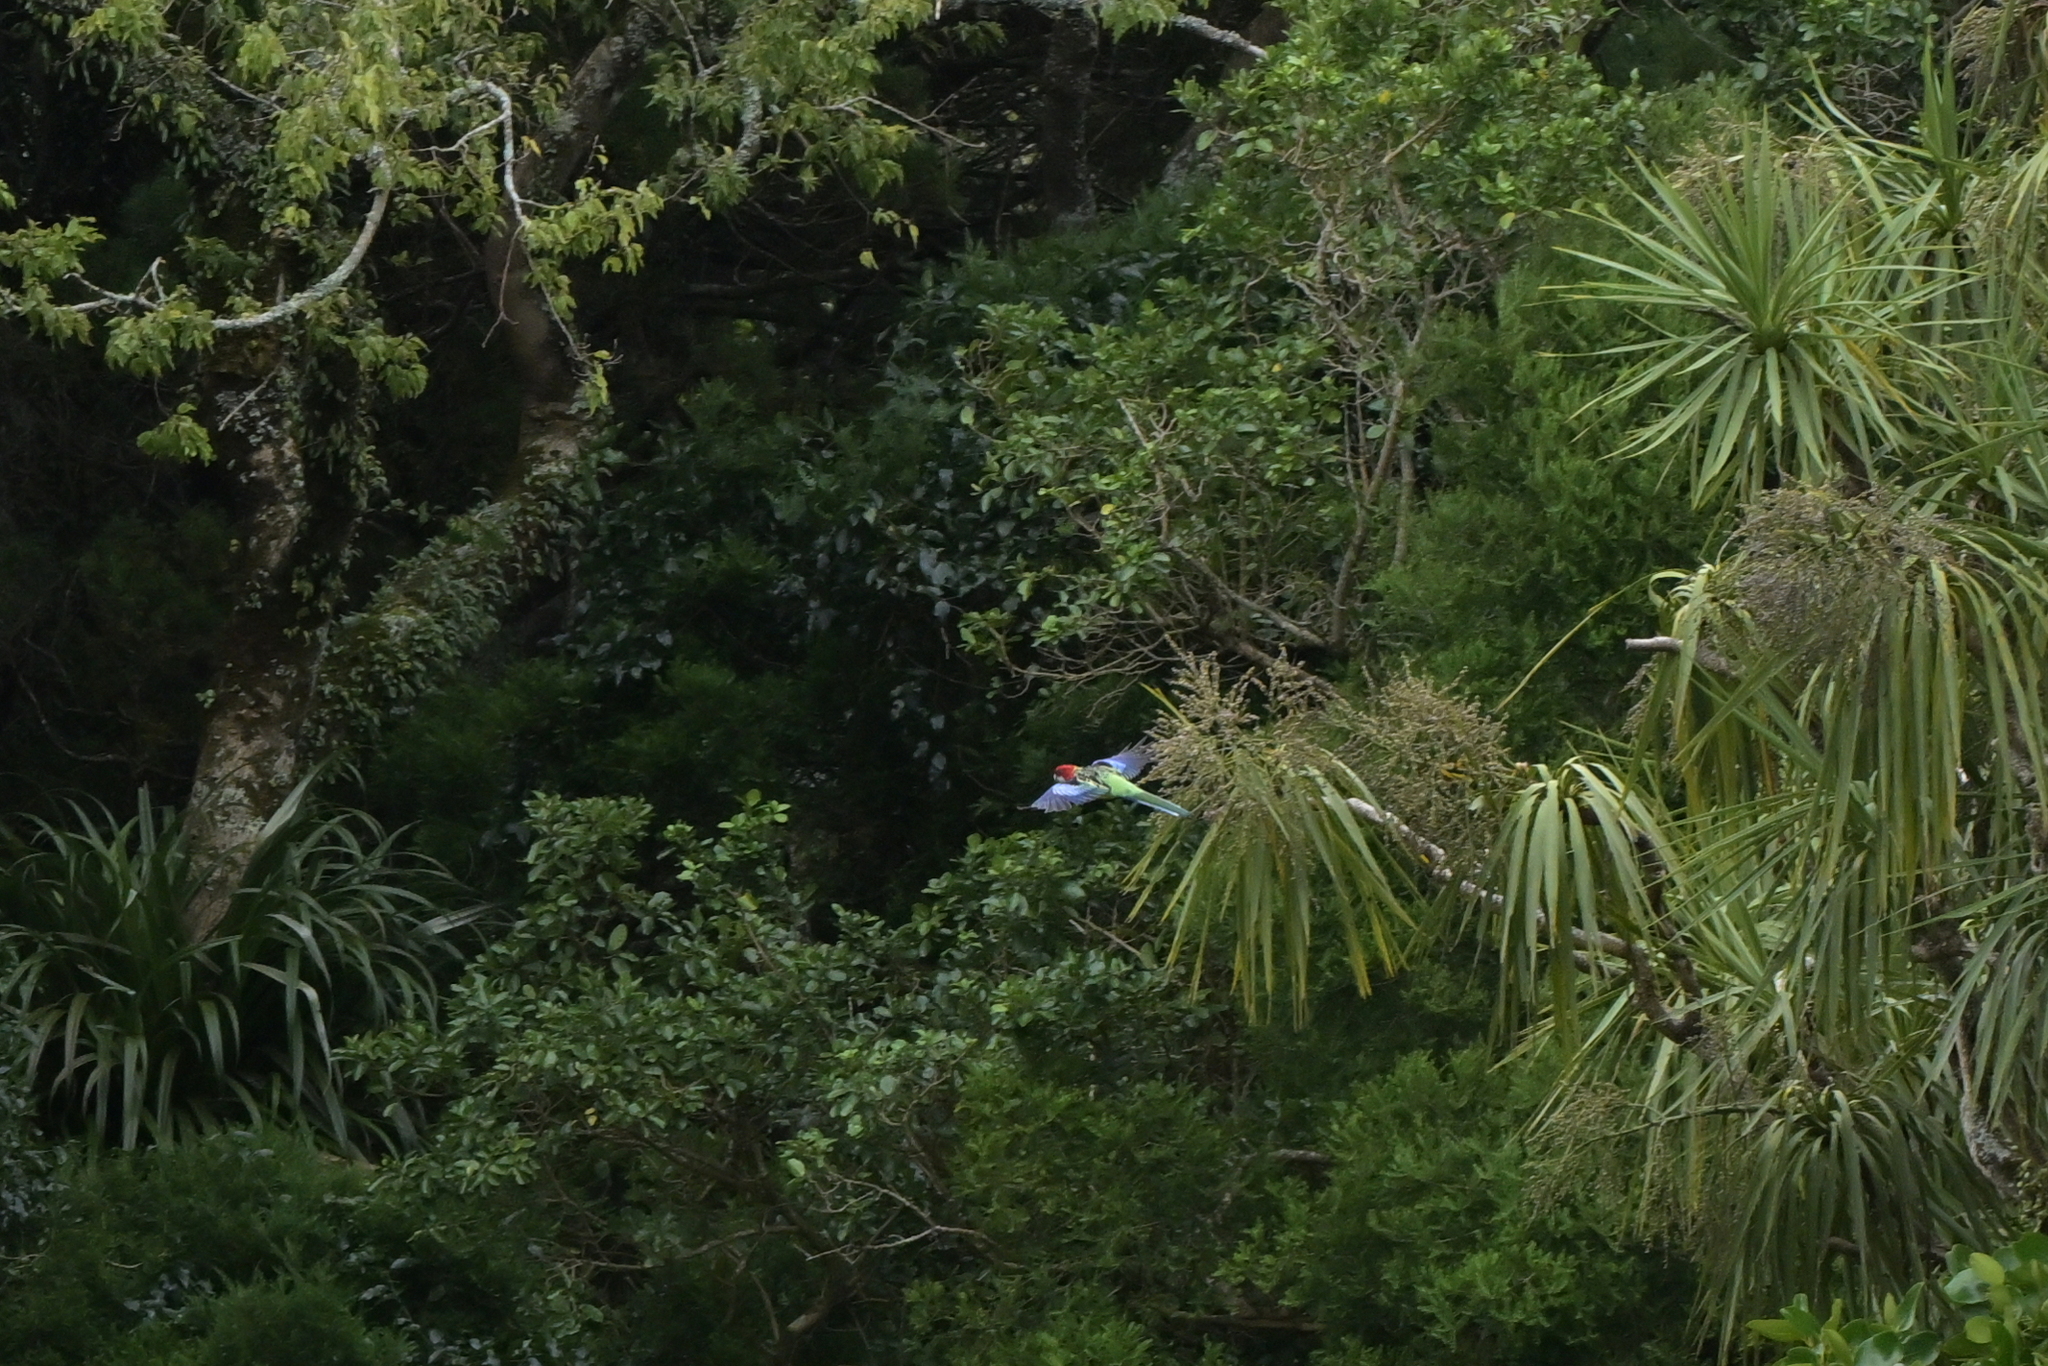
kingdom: Animalia
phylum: Chordata
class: Aves
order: Psittaciformes
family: Psittacidae
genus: Platycercus
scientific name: Platycercus eximius
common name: Eastern rosella
